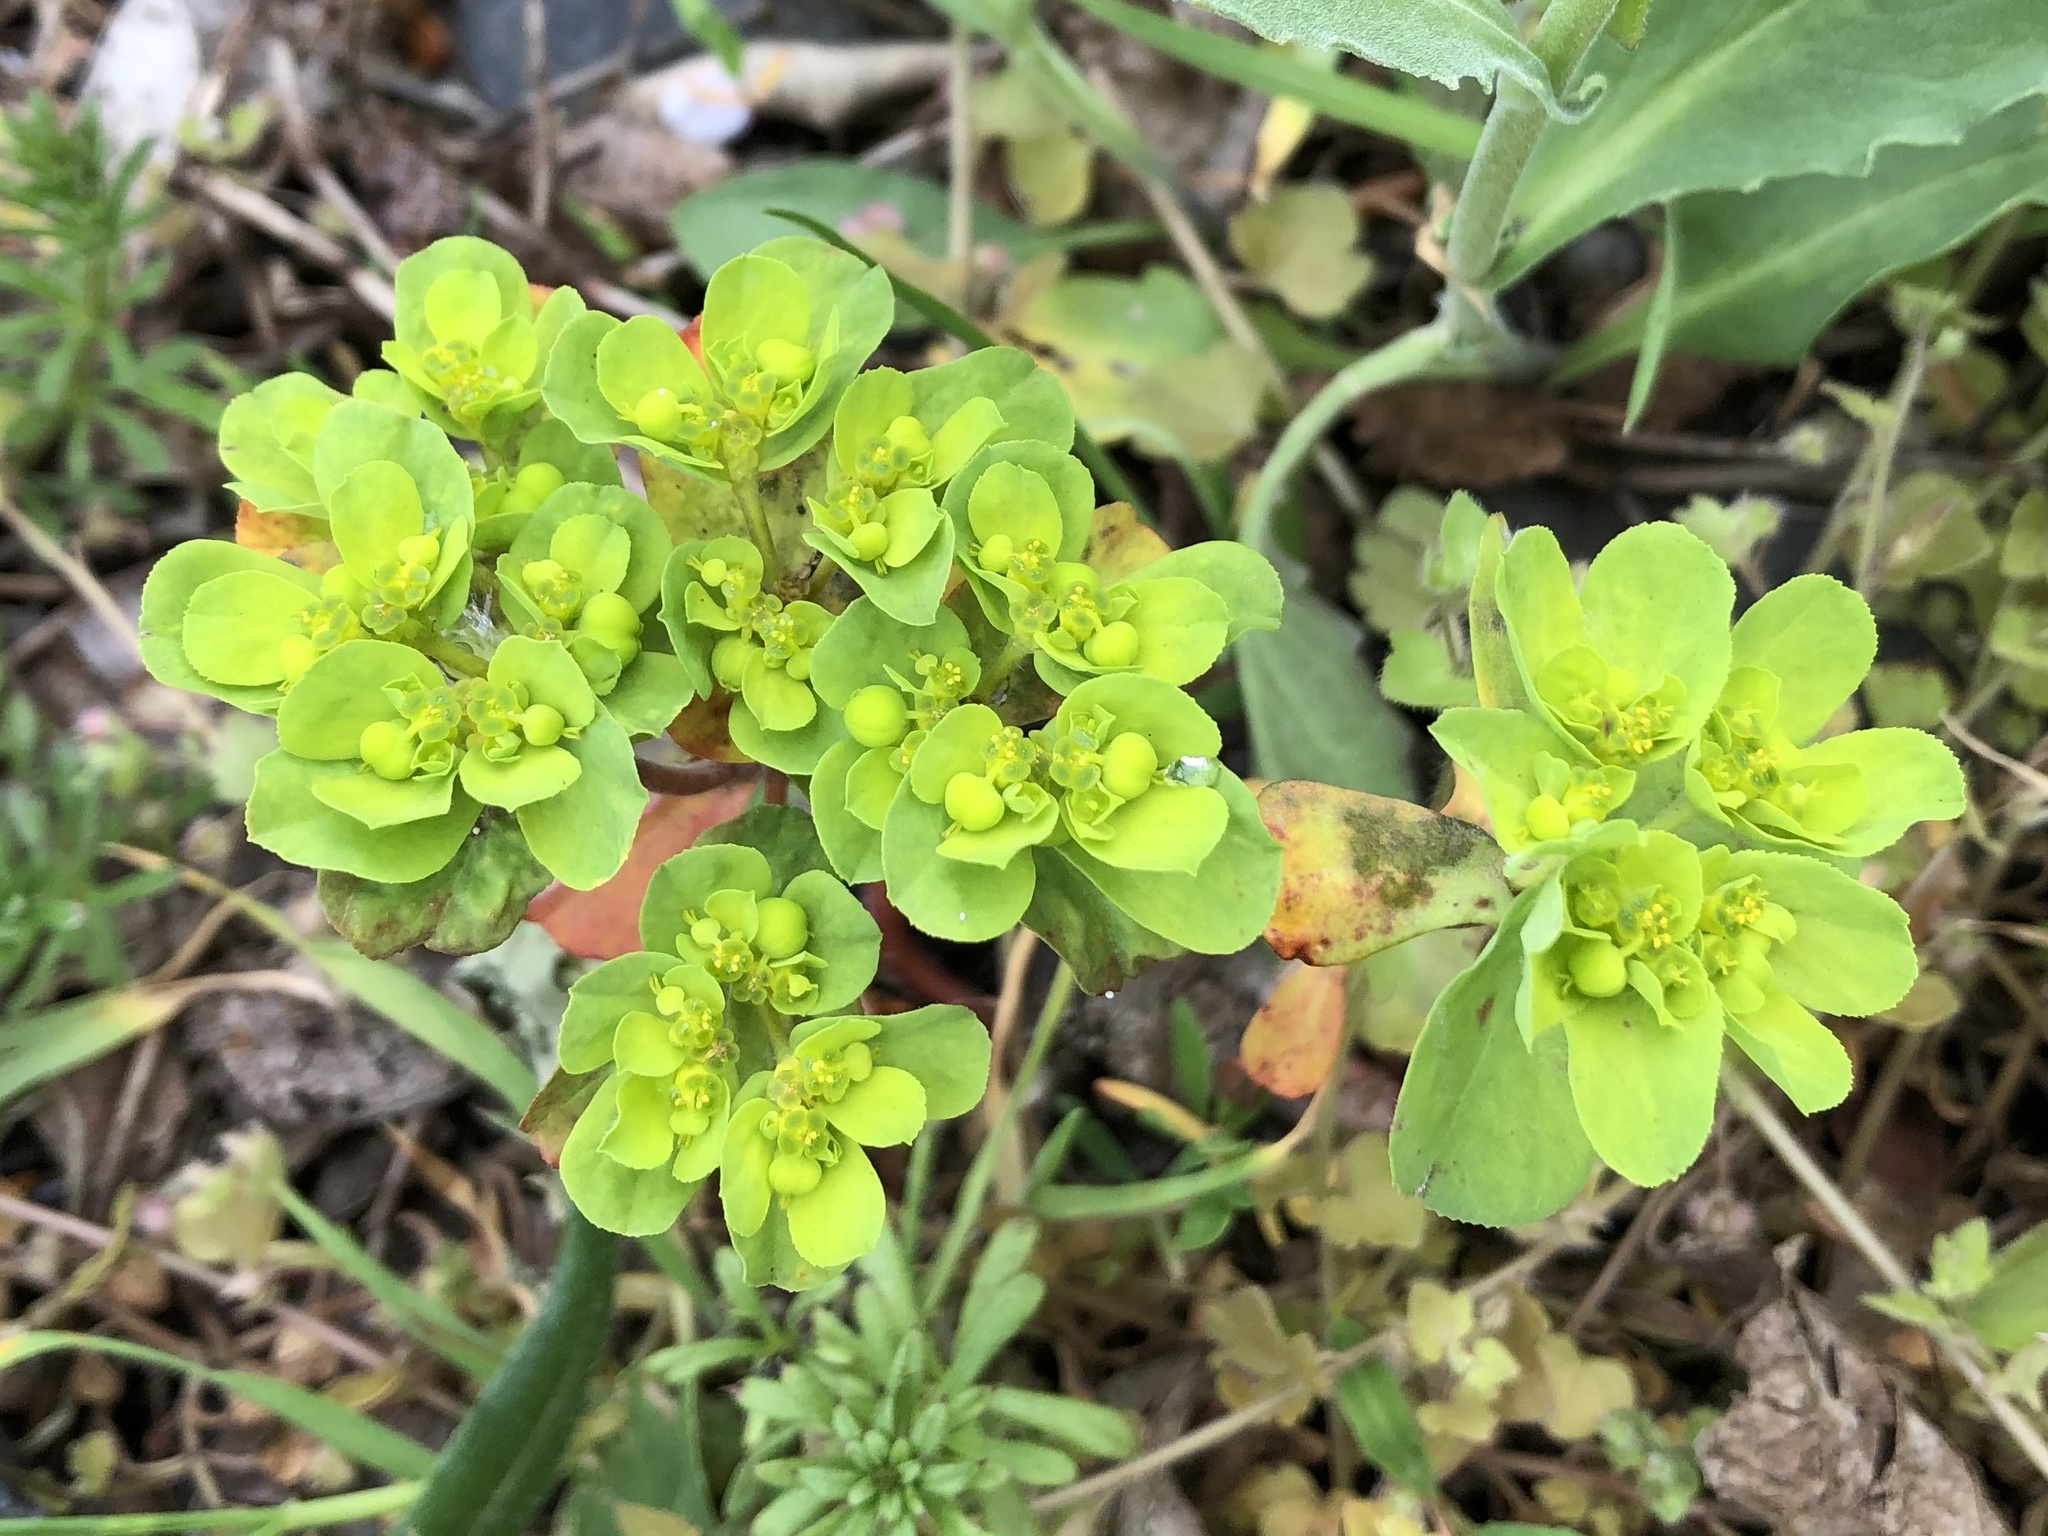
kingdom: Plantae
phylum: Tracheophyta
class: Magnoliopsida
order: Malpighiales
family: Euphorbiaceae
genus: Euphorbia
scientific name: Euphorbia helioscopia
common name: Sun spurge
